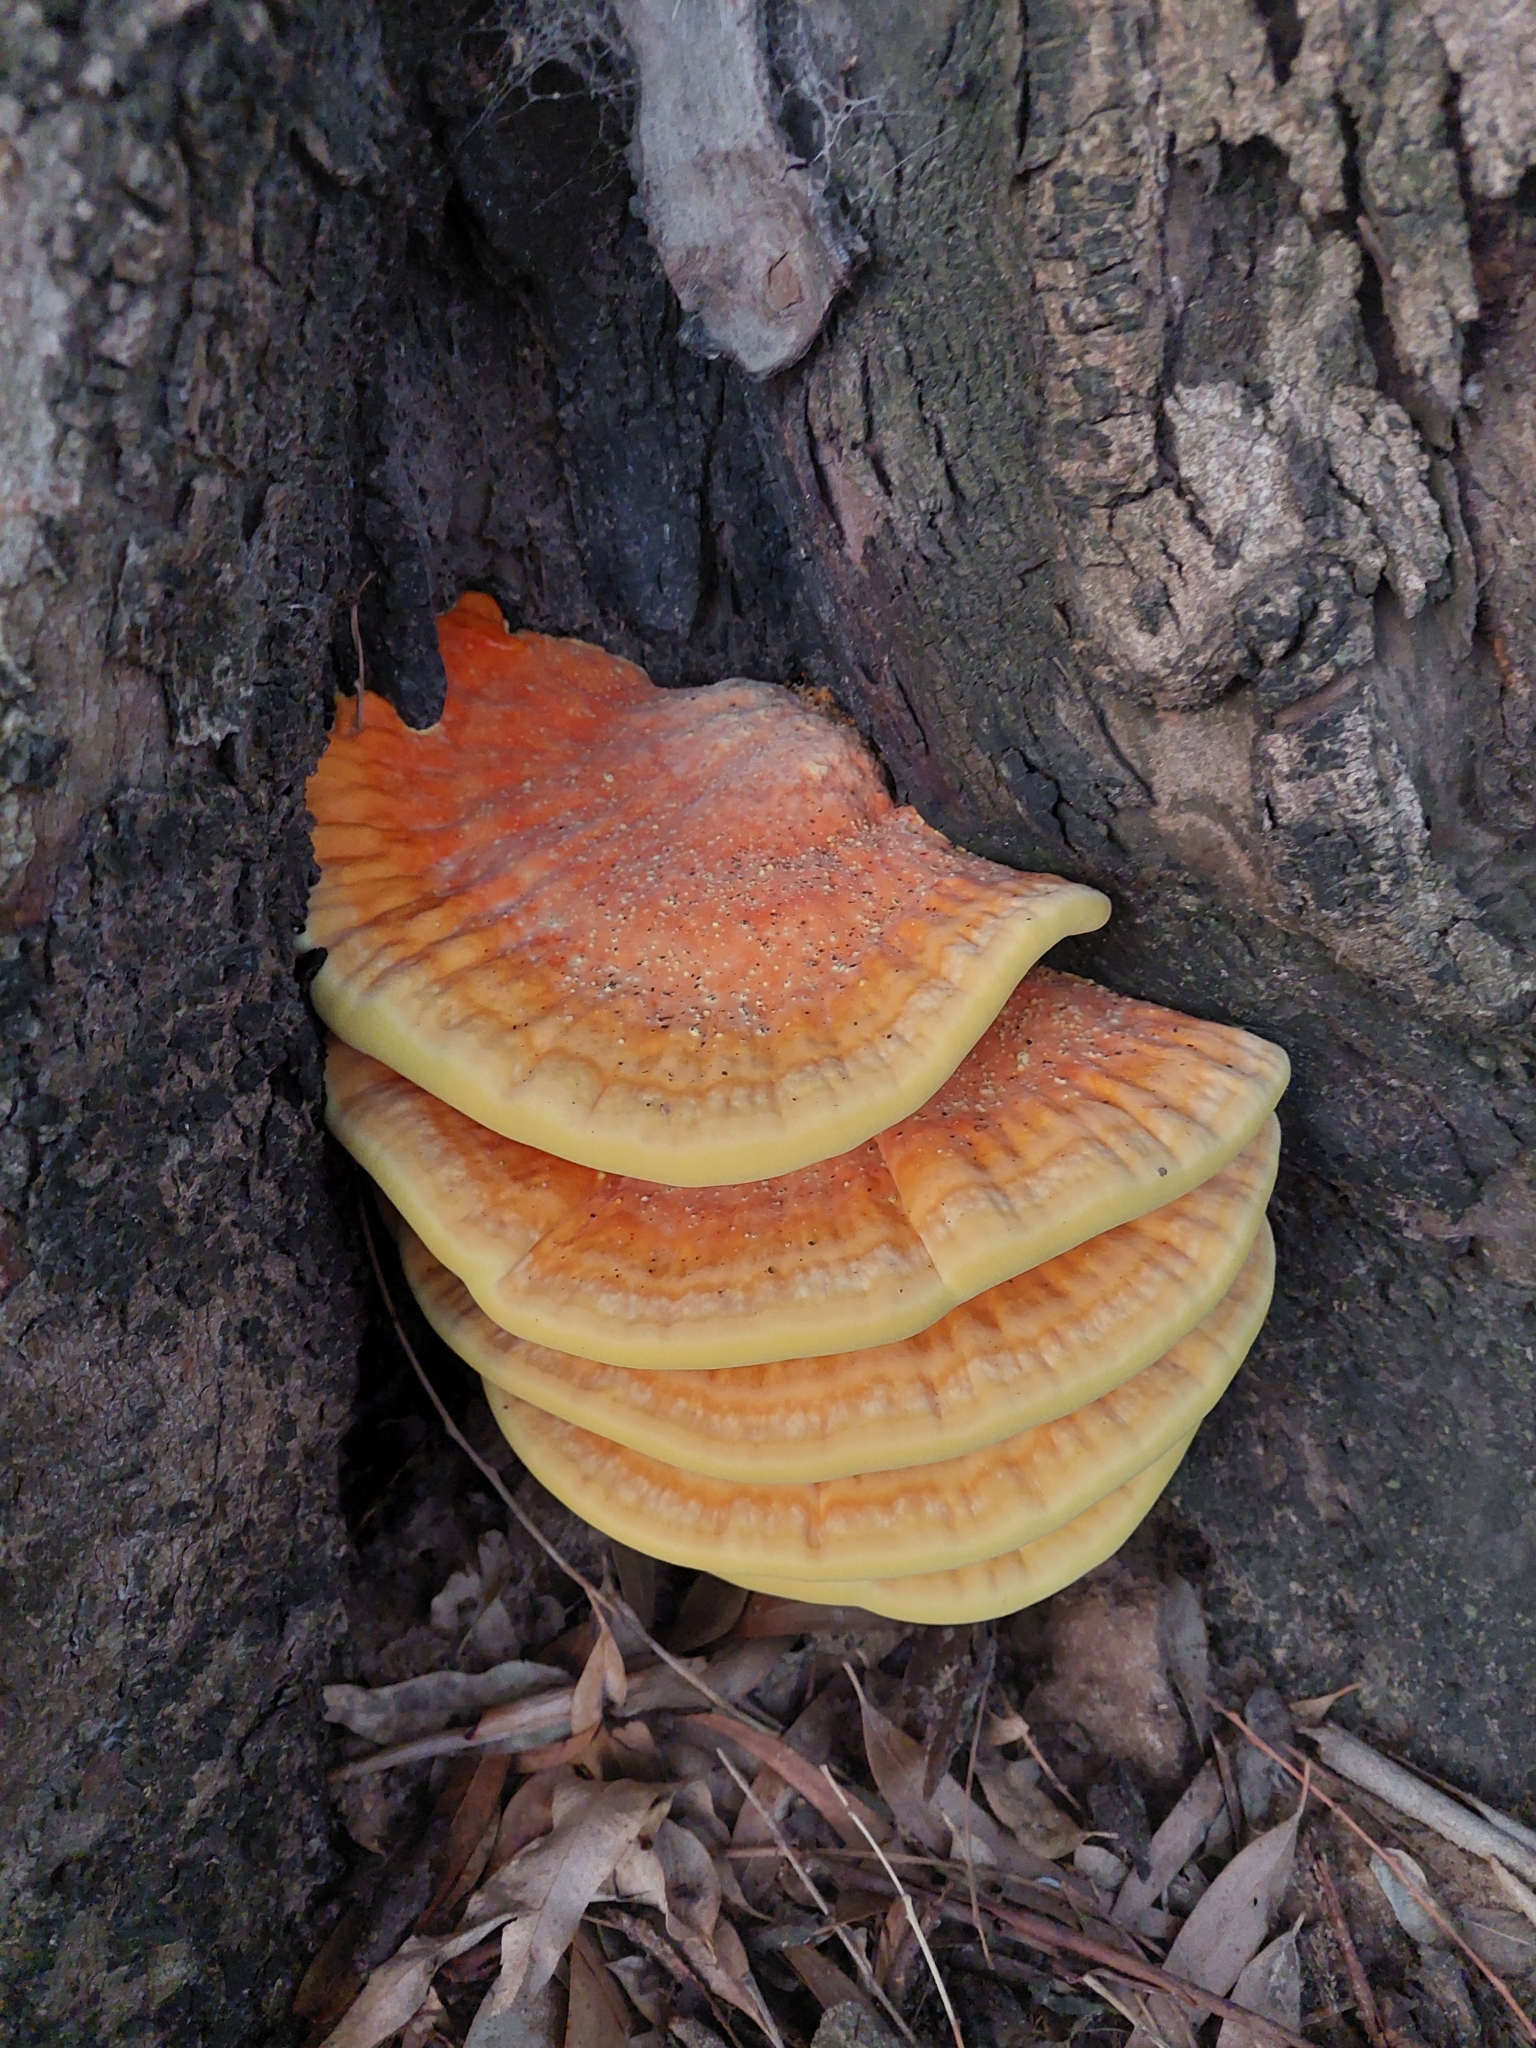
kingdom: Fungi
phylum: Basidiomycota
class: Agaricomycetes
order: Polyporales
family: Laetiporaceae
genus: Laetiporus
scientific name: Laetiporus sulphureus
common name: Chicken of the woods
